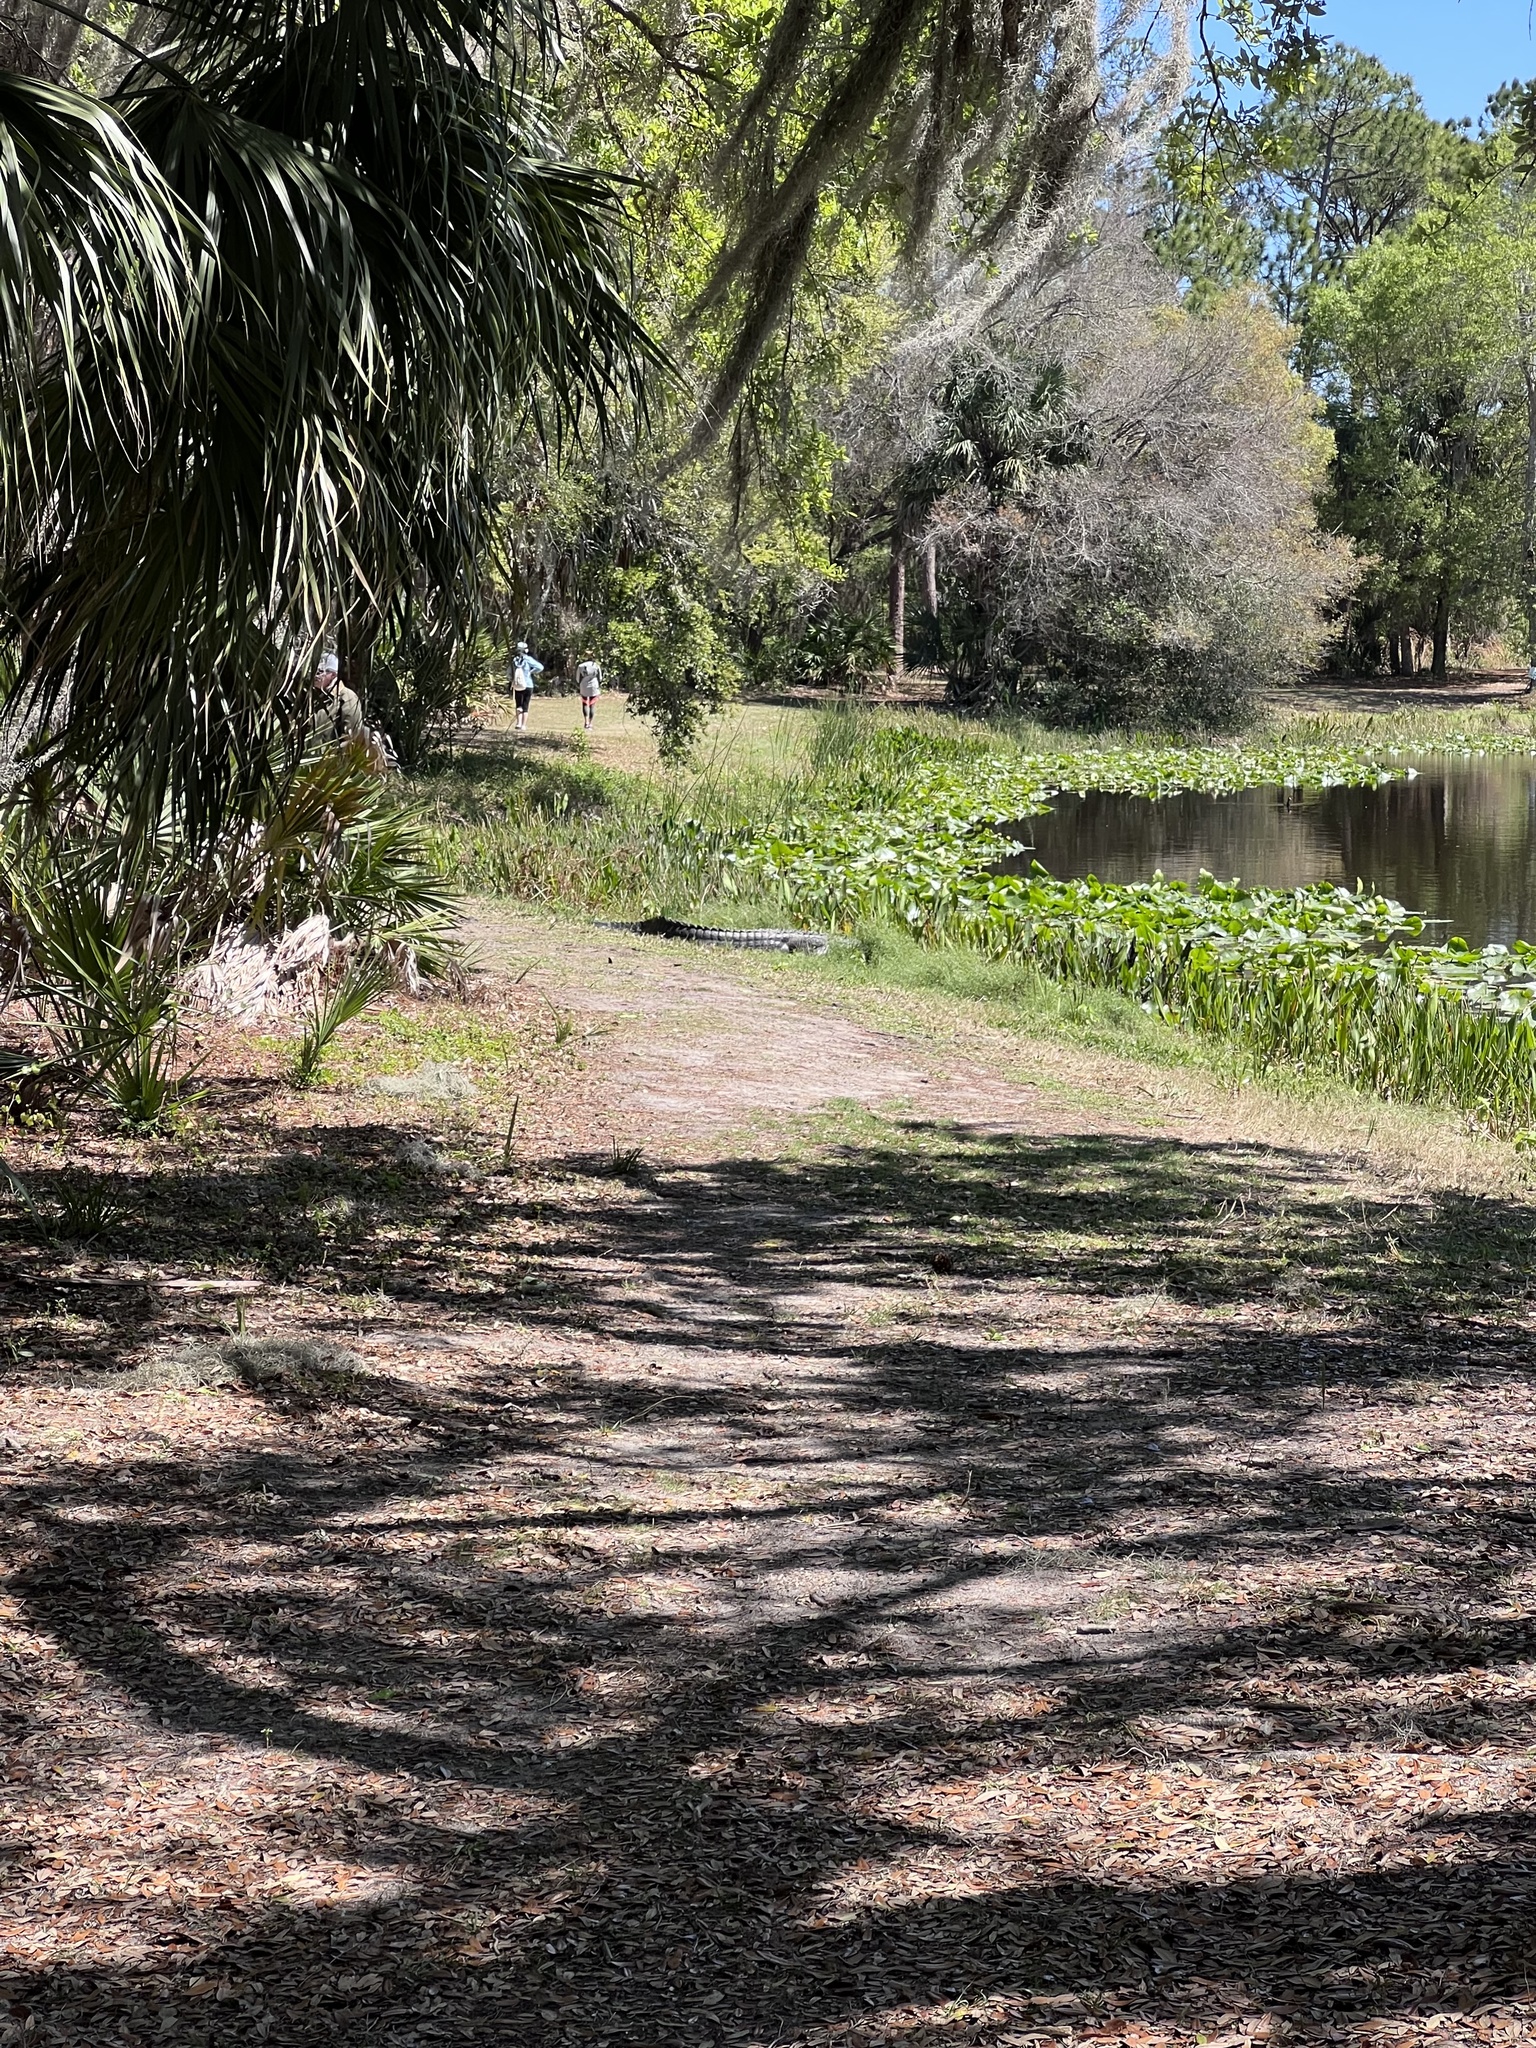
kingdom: Animalia
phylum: Chordata
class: Crocodylia
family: Alligatoridae
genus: Alligator
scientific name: Alligator mississippiensis
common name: American alligator
